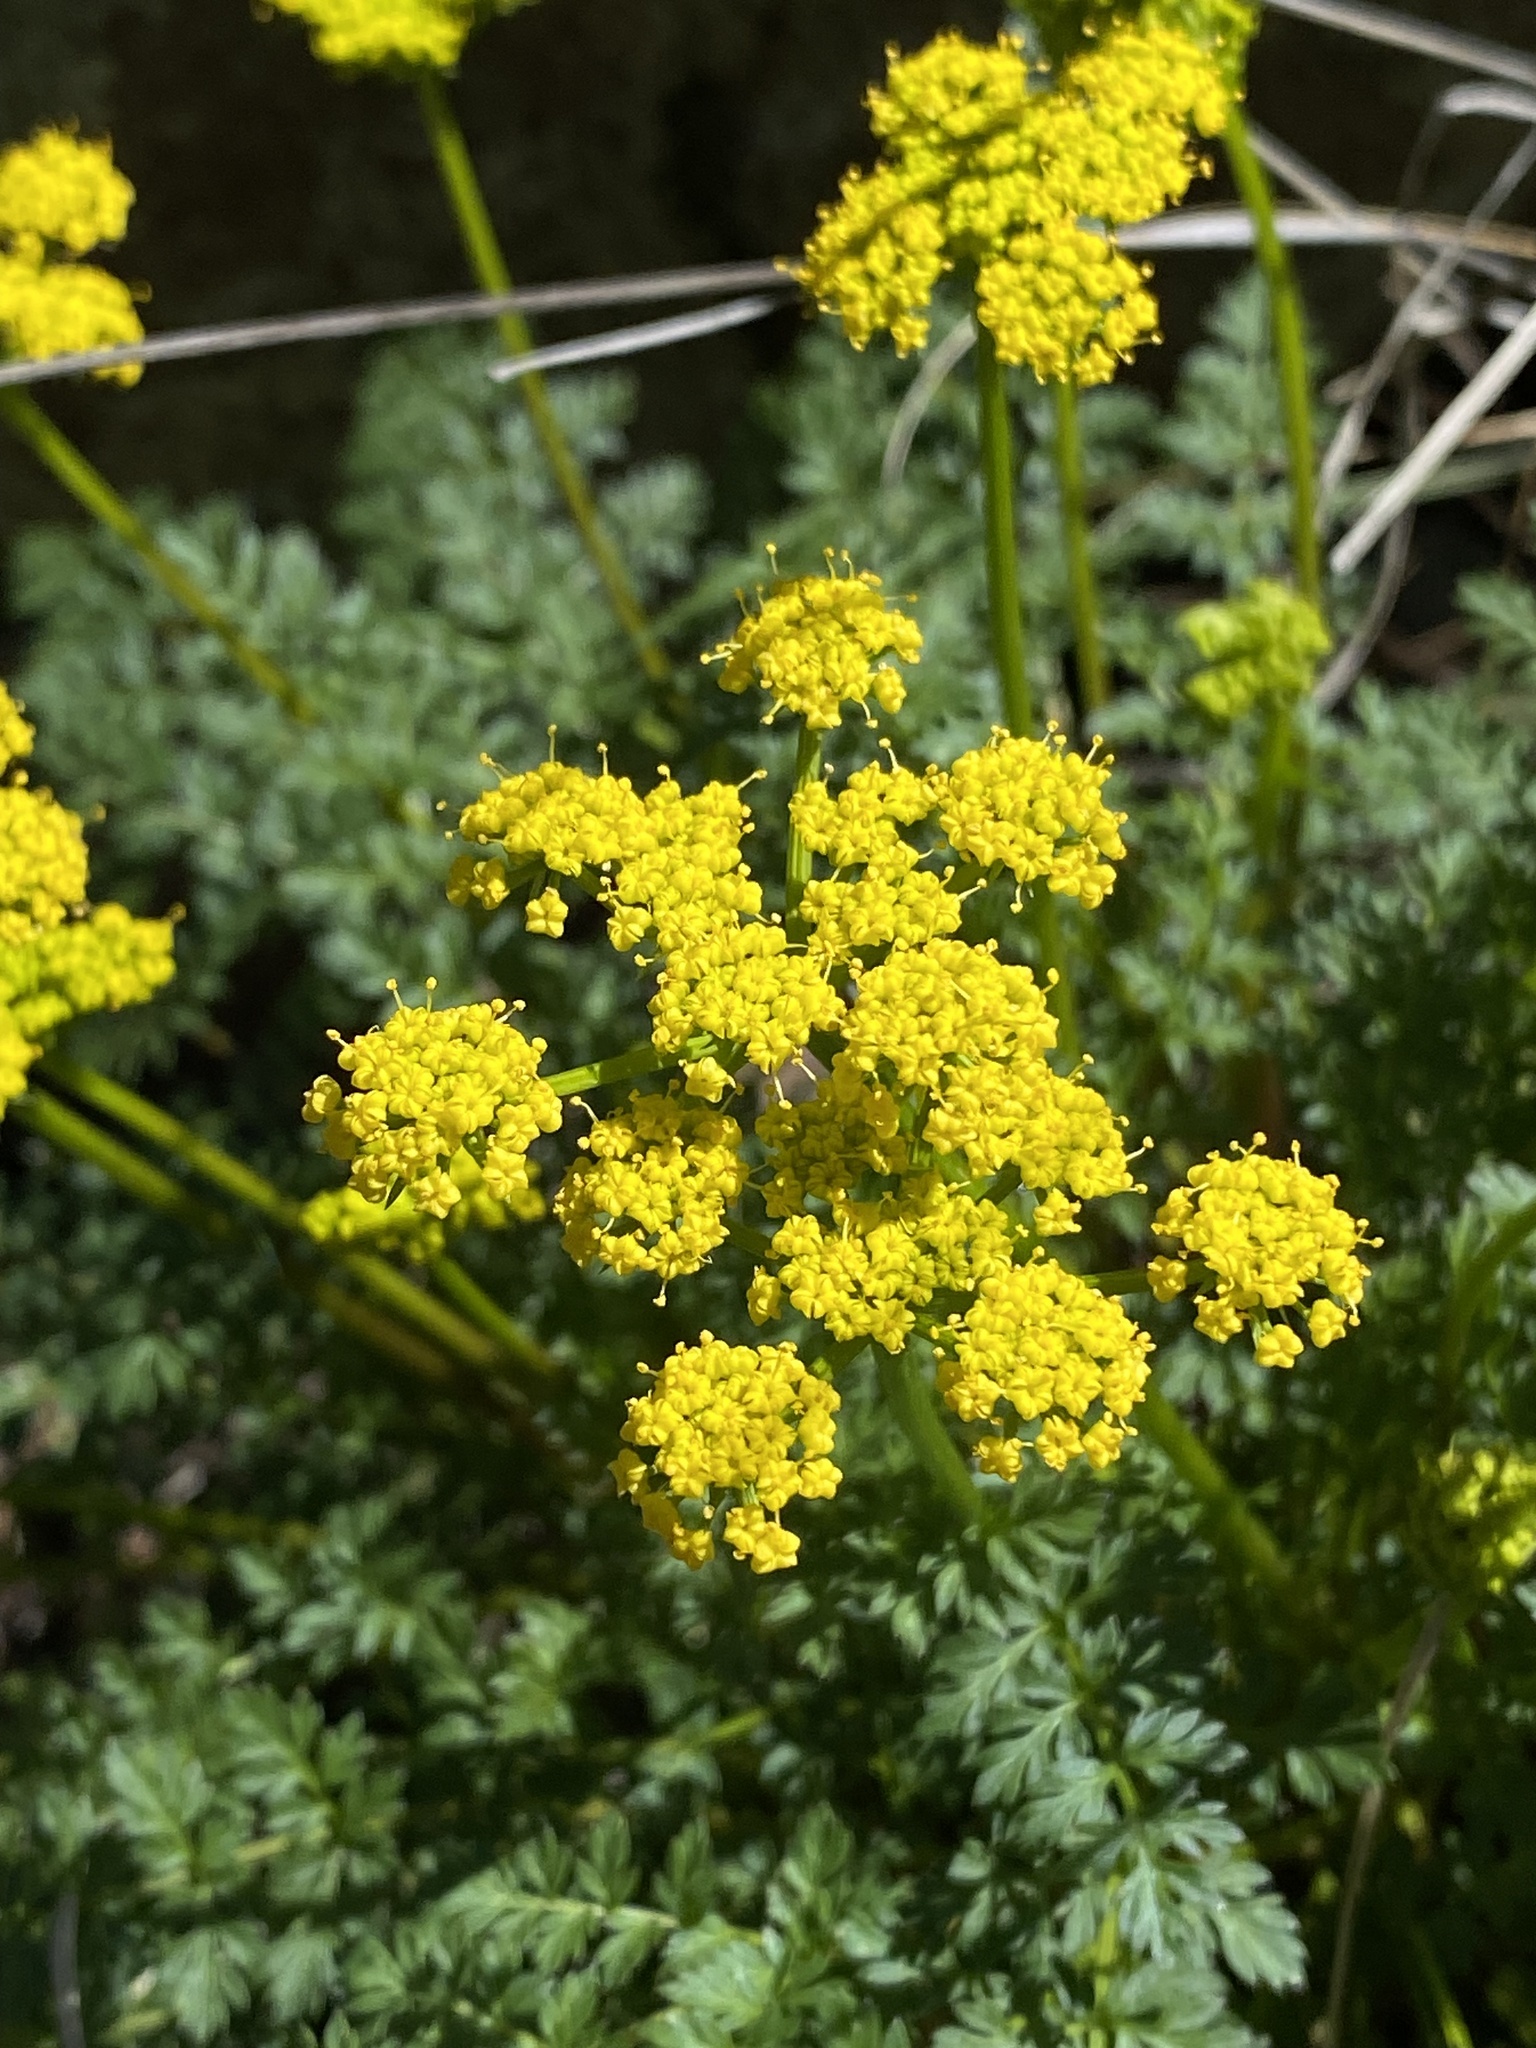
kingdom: Plantae
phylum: Tracheophyta
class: Magnoliopsida
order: Apiales
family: Apiaceae
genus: Lomatium
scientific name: Lomatium serpentinum
